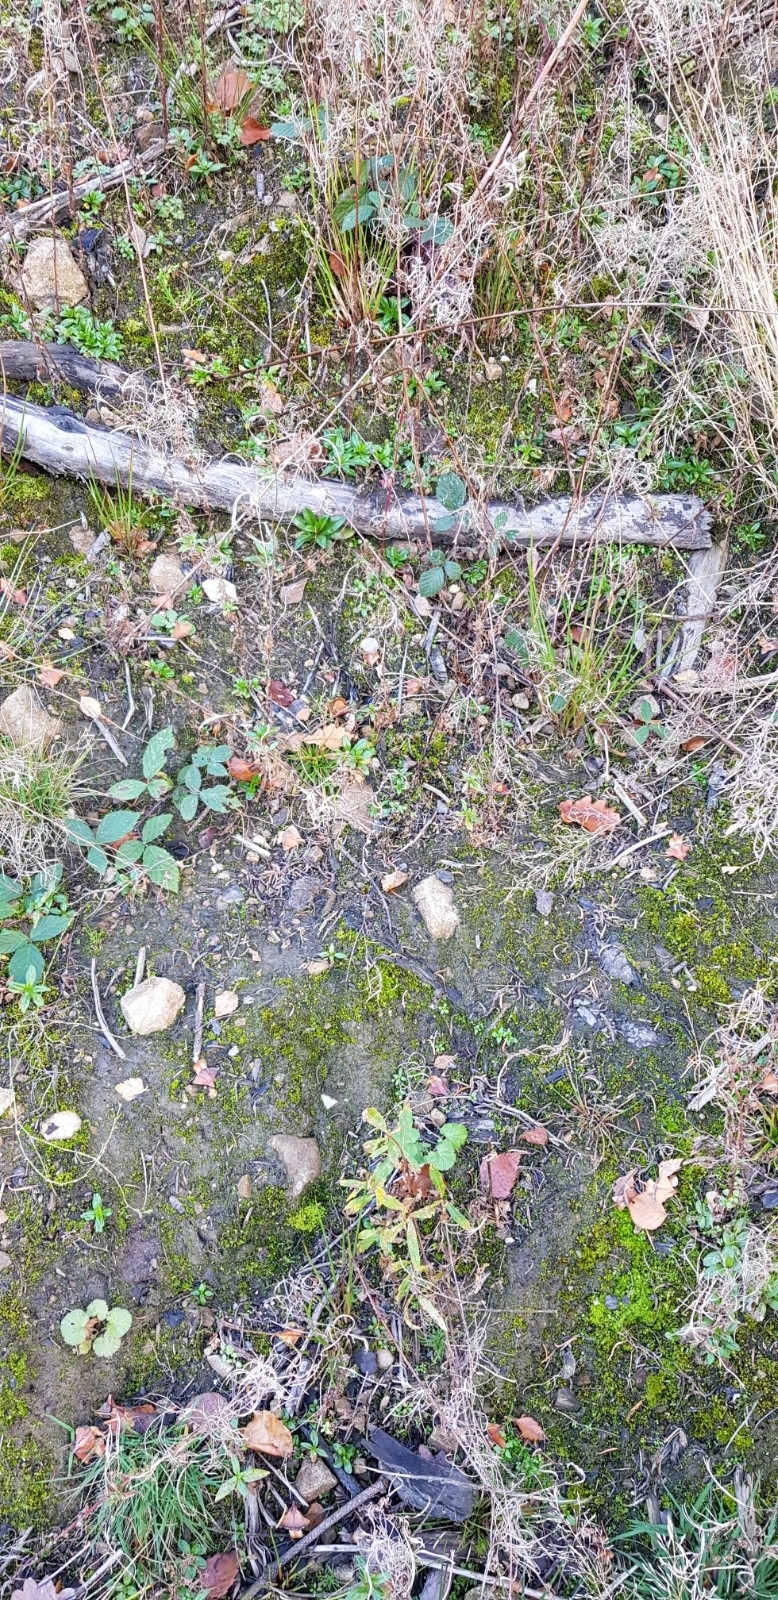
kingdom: Plantae
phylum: Bryophyta
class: Bryopsida
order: Dicranales
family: Ditrichaceae
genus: Ceratodon
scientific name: Ceratodon purpureus
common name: Redshank
